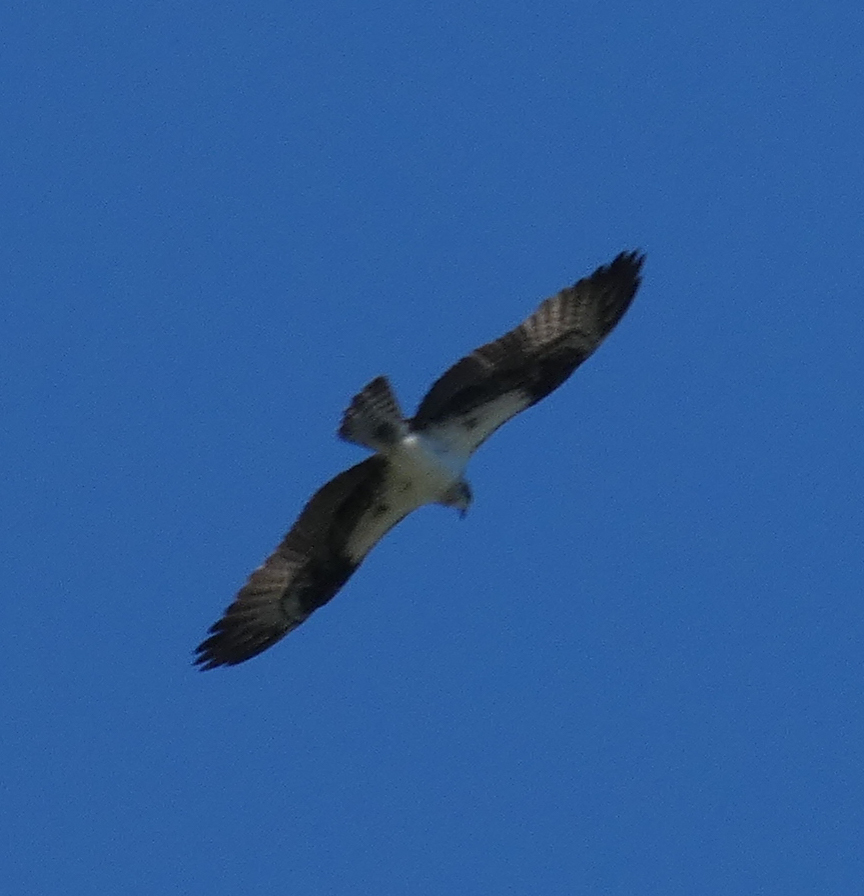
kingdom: Animalia
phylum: Chordata
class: Aves
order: Accipitriformes
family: Pandionidae
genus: Pandion
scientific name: Pandion haliaetus
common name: Osprey
